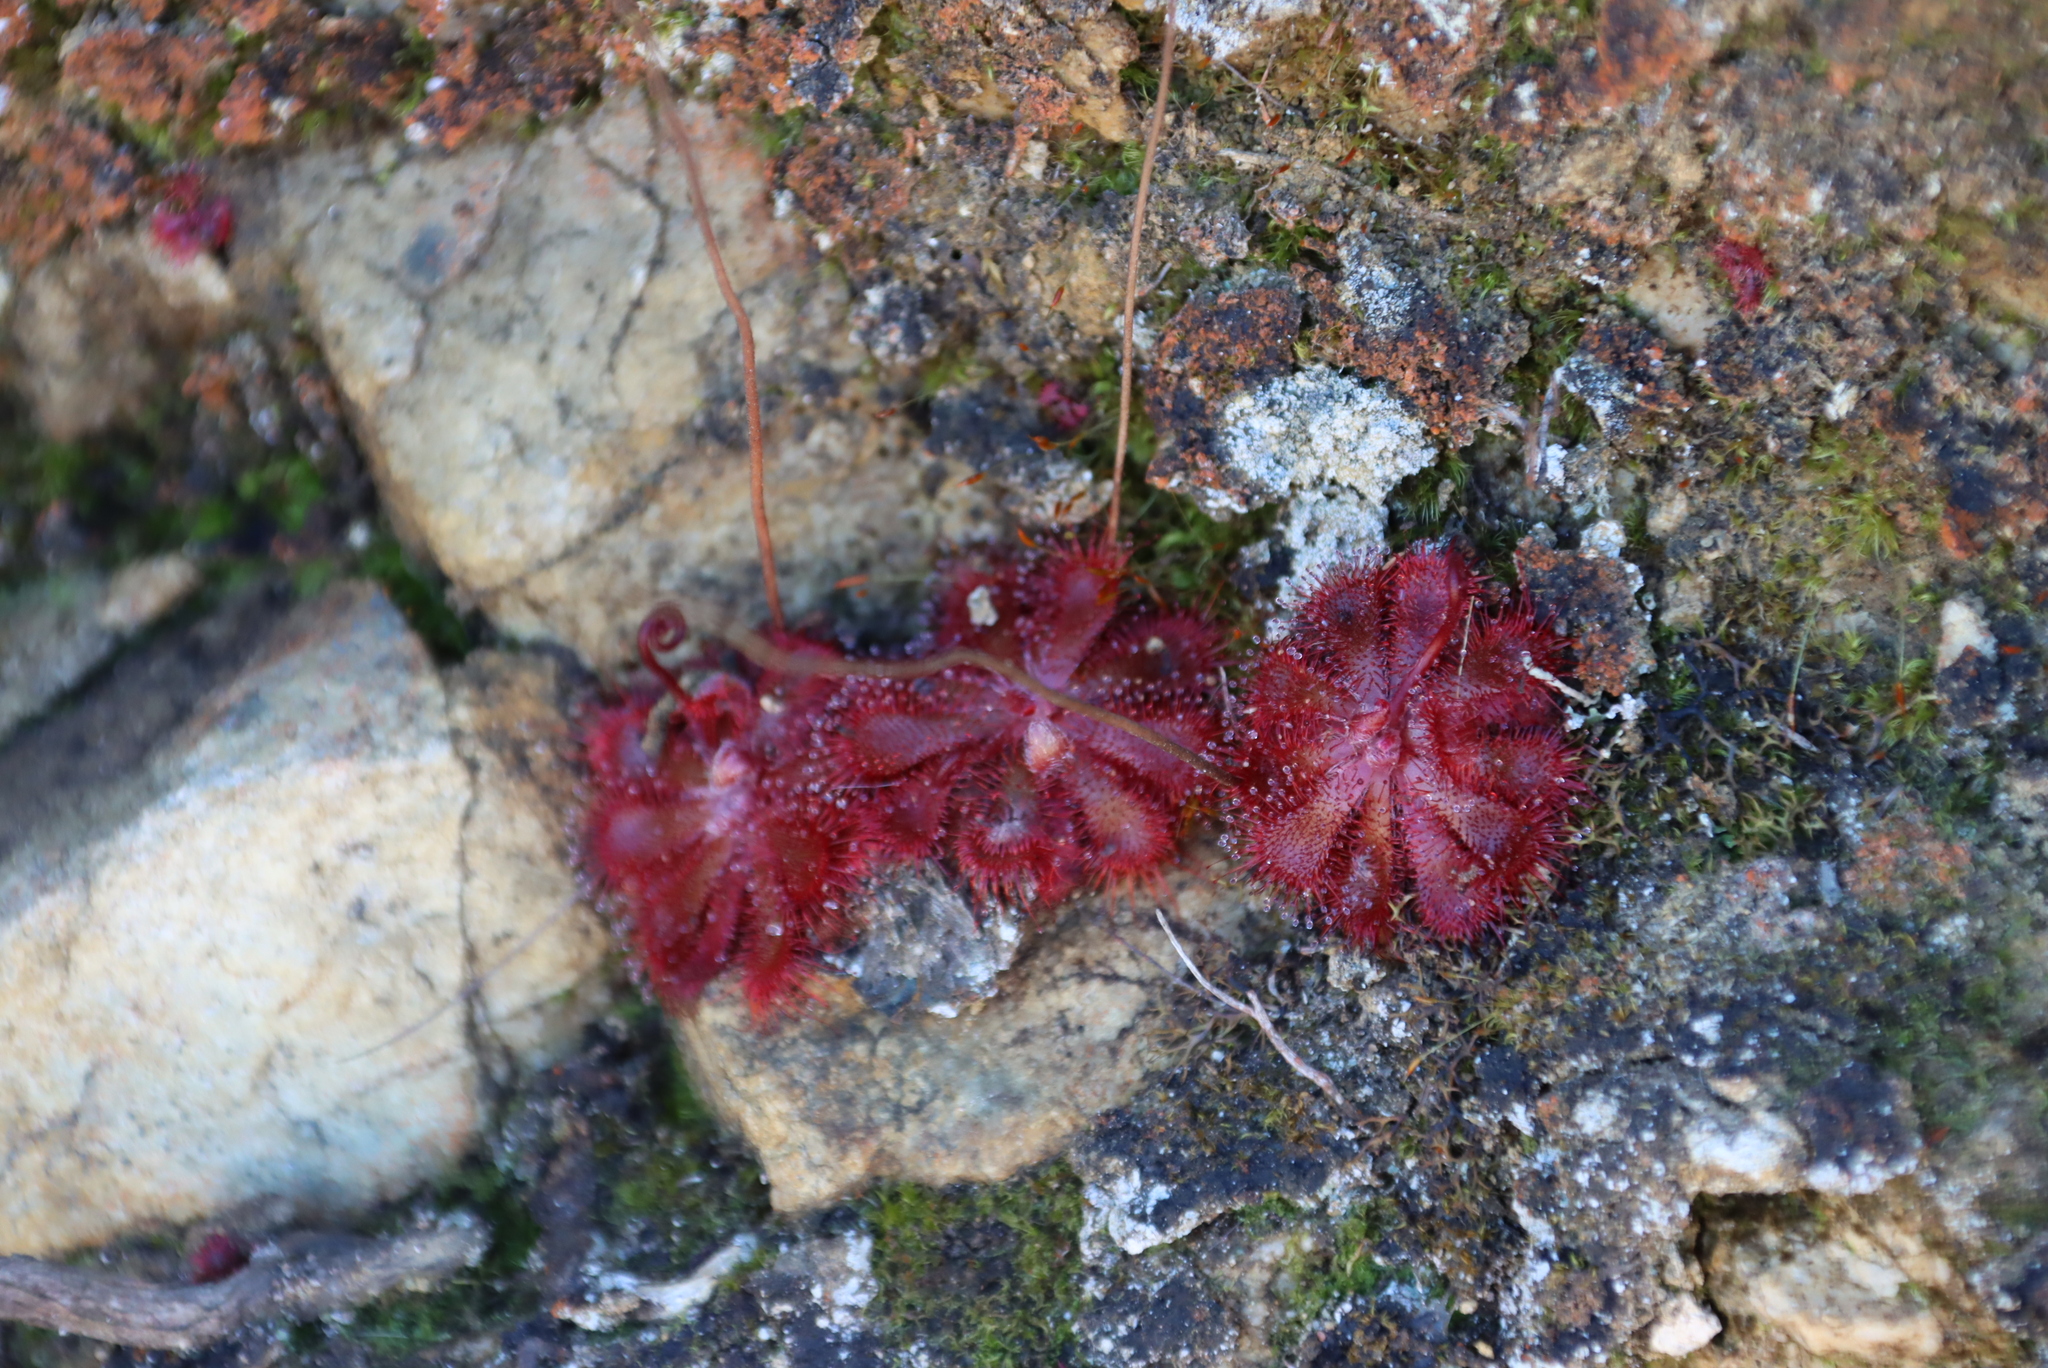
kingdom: Plantae
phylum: Tracheophyta
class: Magnoliopsida
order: Caryophyllales
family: Droseraceae
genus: Drosera
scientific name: Drosera aliciae
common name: Alice sundew
